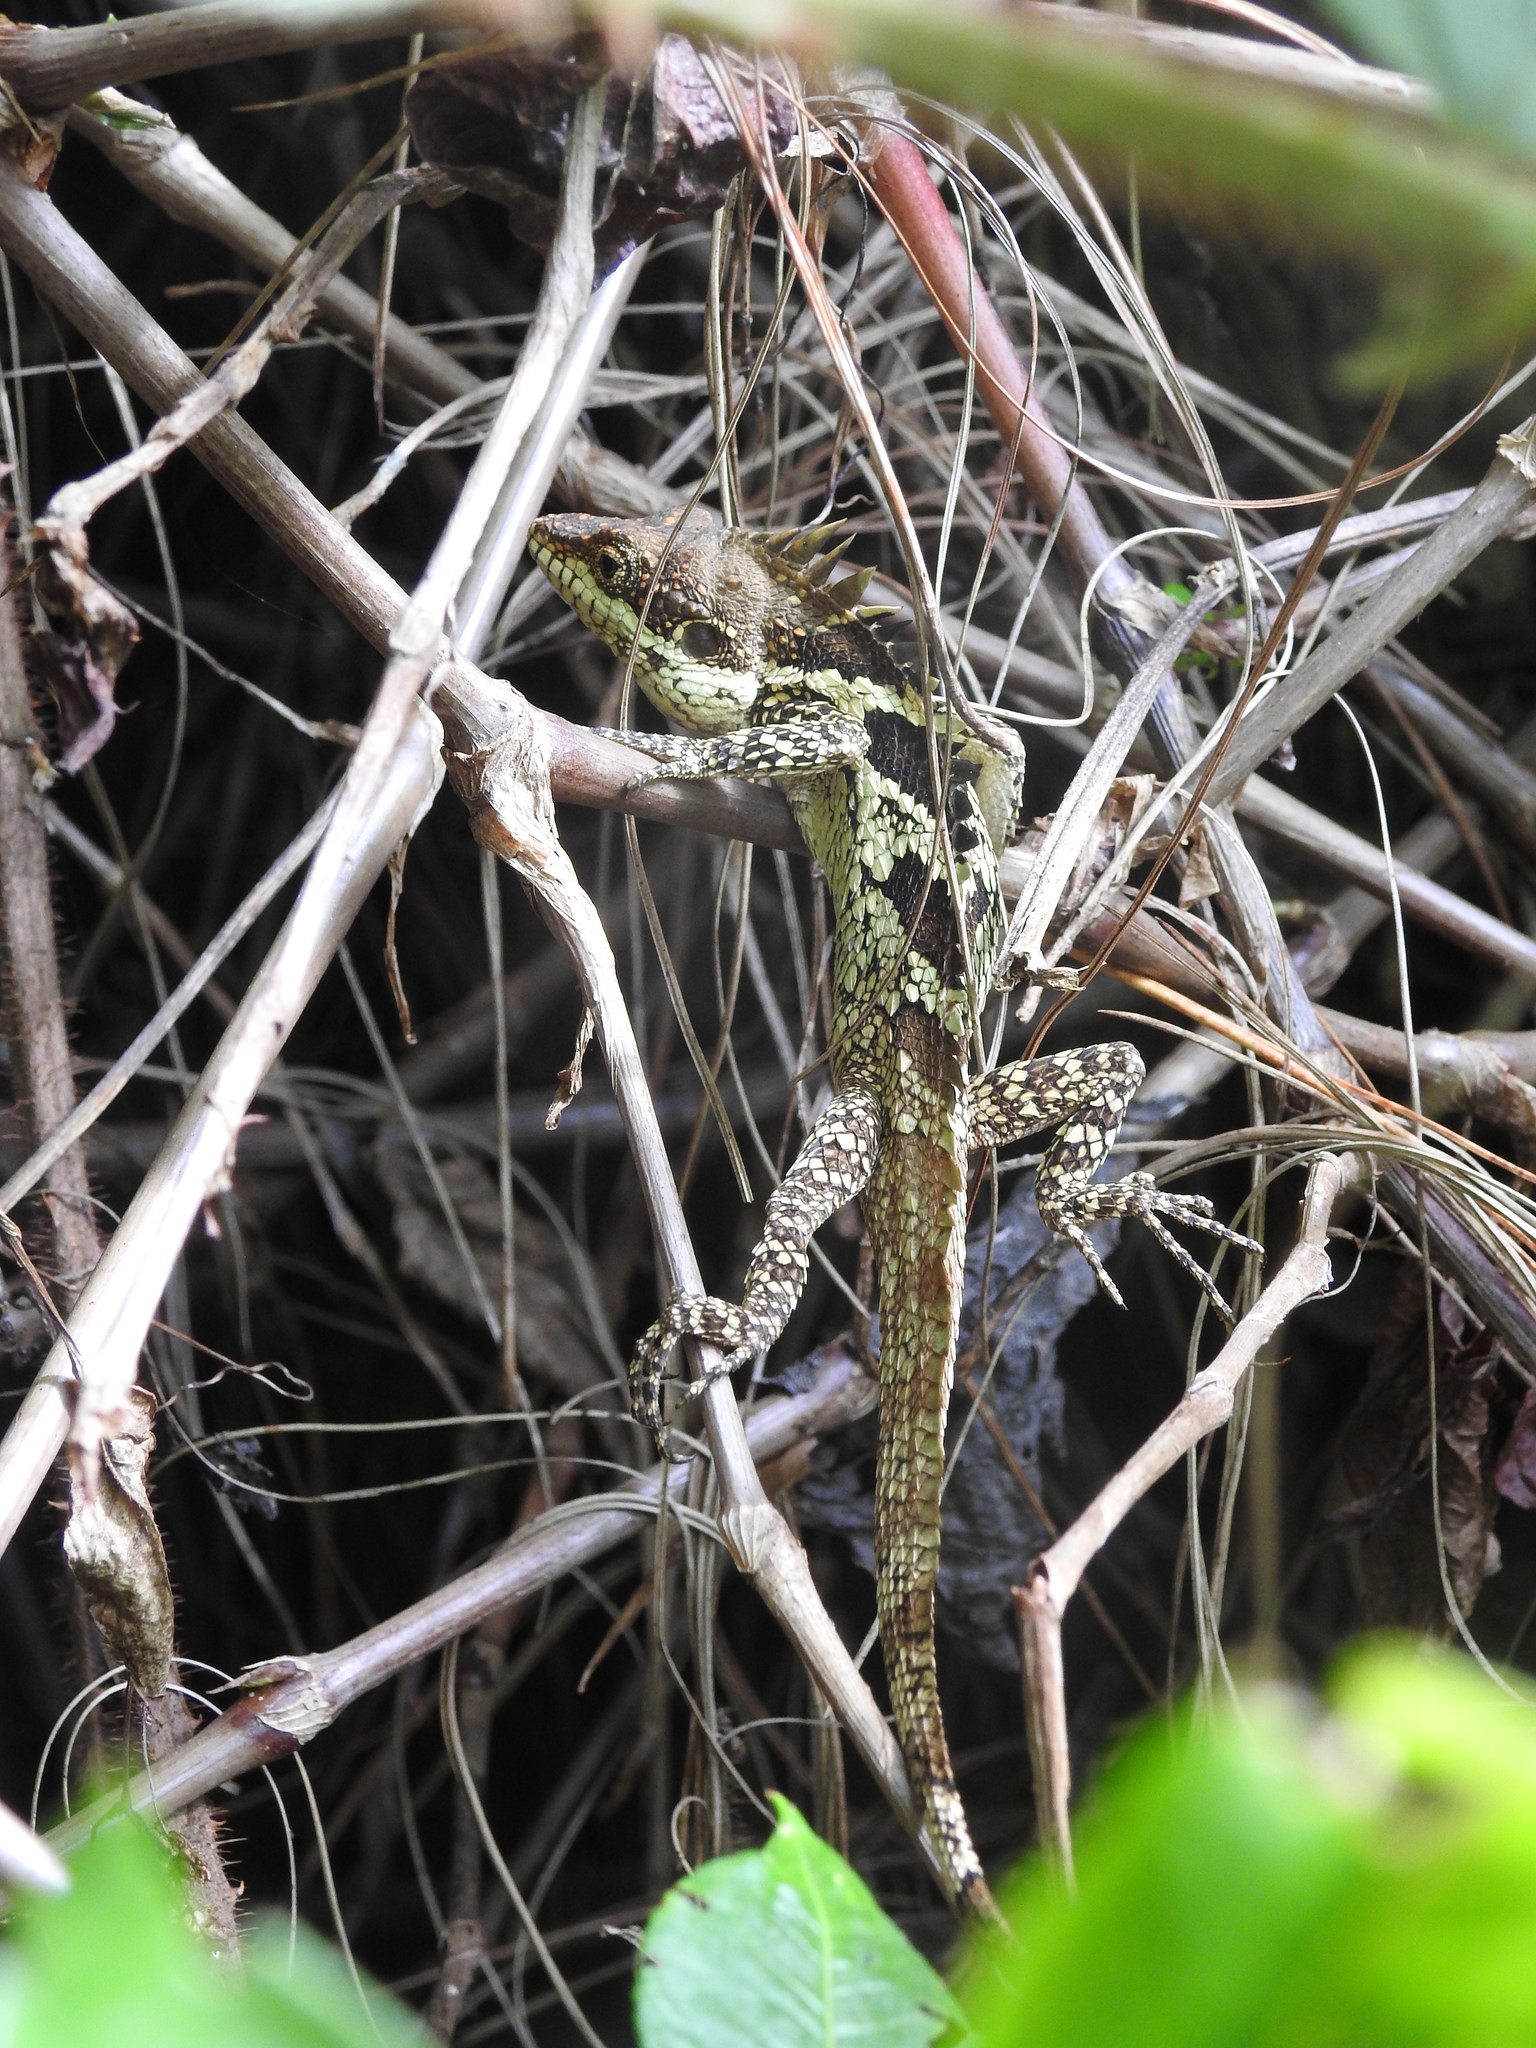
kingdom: Animalia
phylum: Chordata
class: Squamata
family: Agamidae
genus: Salea
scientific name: Salea anamallayana
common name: Anaimalai spiny lizard
